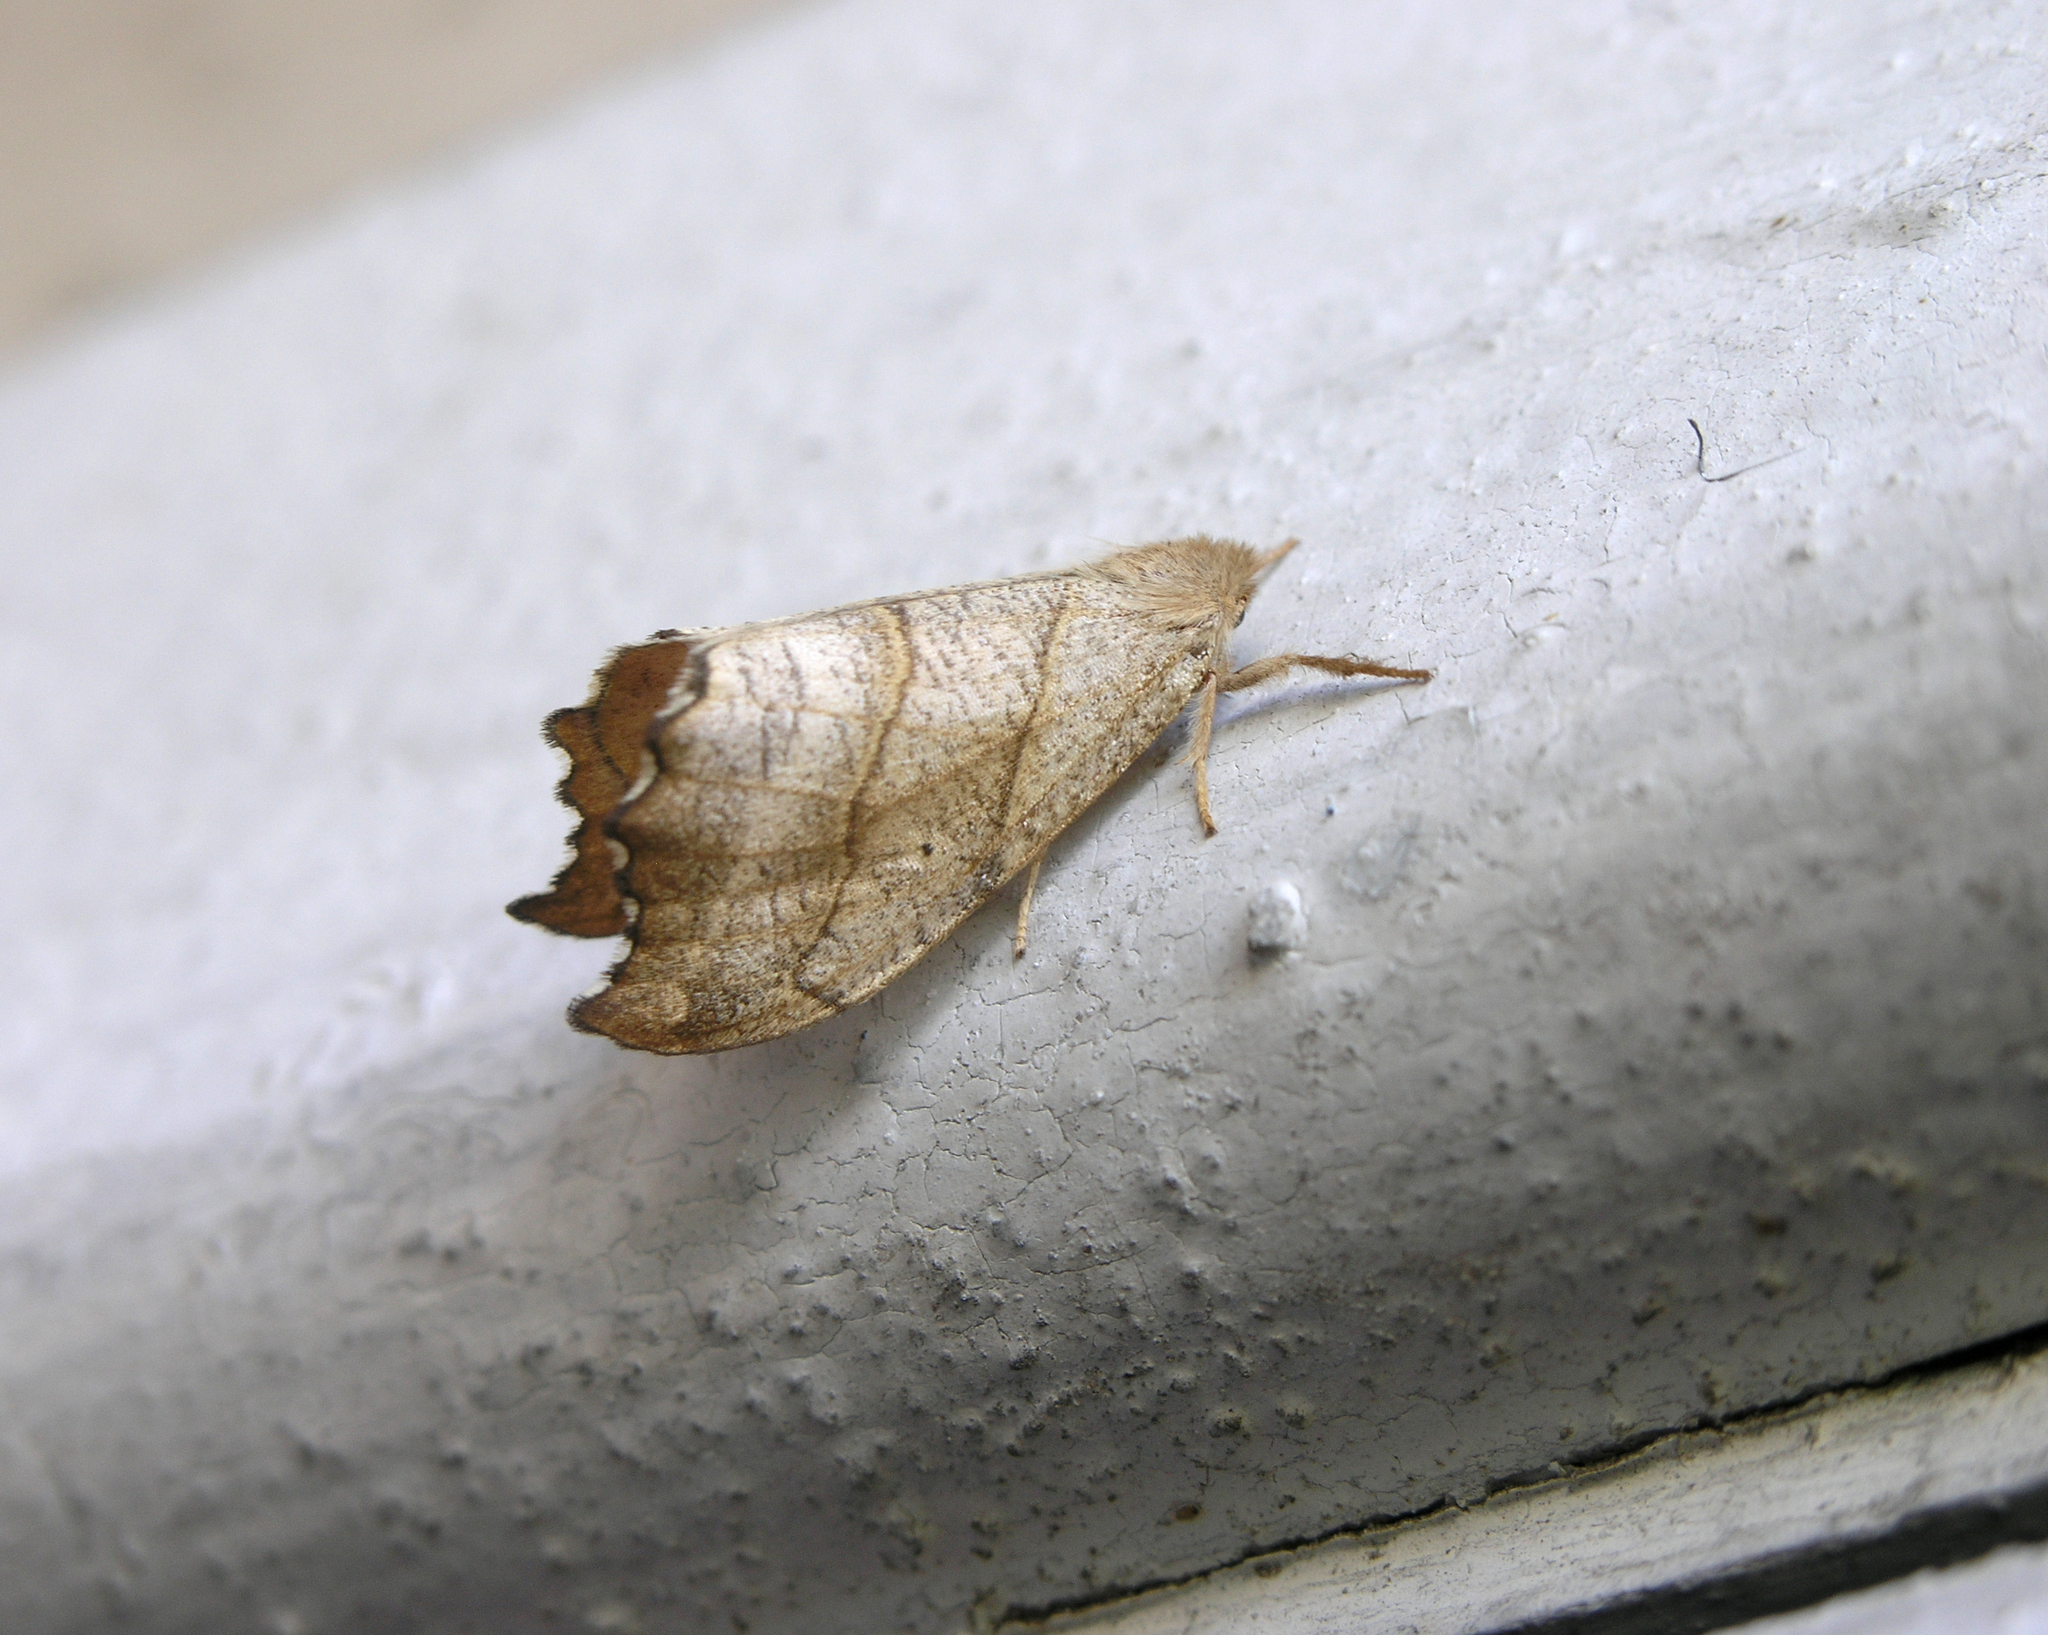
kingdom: Animalia
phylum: Arthropoda
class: Insecta
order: Lepidoptera
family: Drepanidae
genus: Falcaria
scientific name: Falcaria lacertinaria
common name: Scalloped hook-tip
